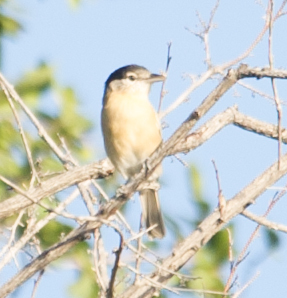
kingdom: Animalia
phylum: Chordata
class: Aves
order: Passeriformes
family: Malaconotidae
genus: Dryoscopus
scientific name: Dryoscopus cubla
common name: Black-backed puffback
